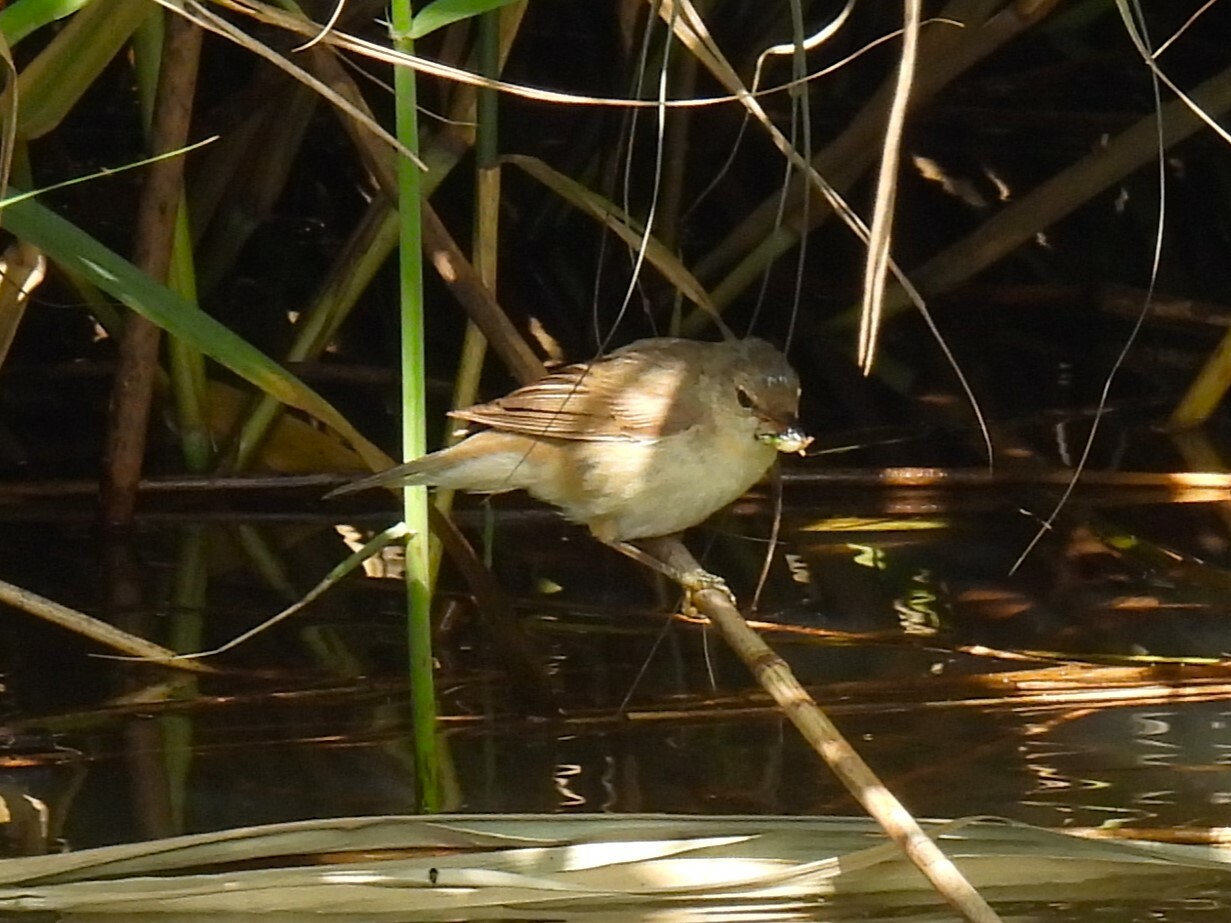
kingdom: Animalia
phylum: Chordata
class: Aves
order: Passeriformes
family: Acrocephalidae
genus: Acrocephalus
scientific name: Acrocephalus scirpaceus
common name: Eurasian reed warbler
